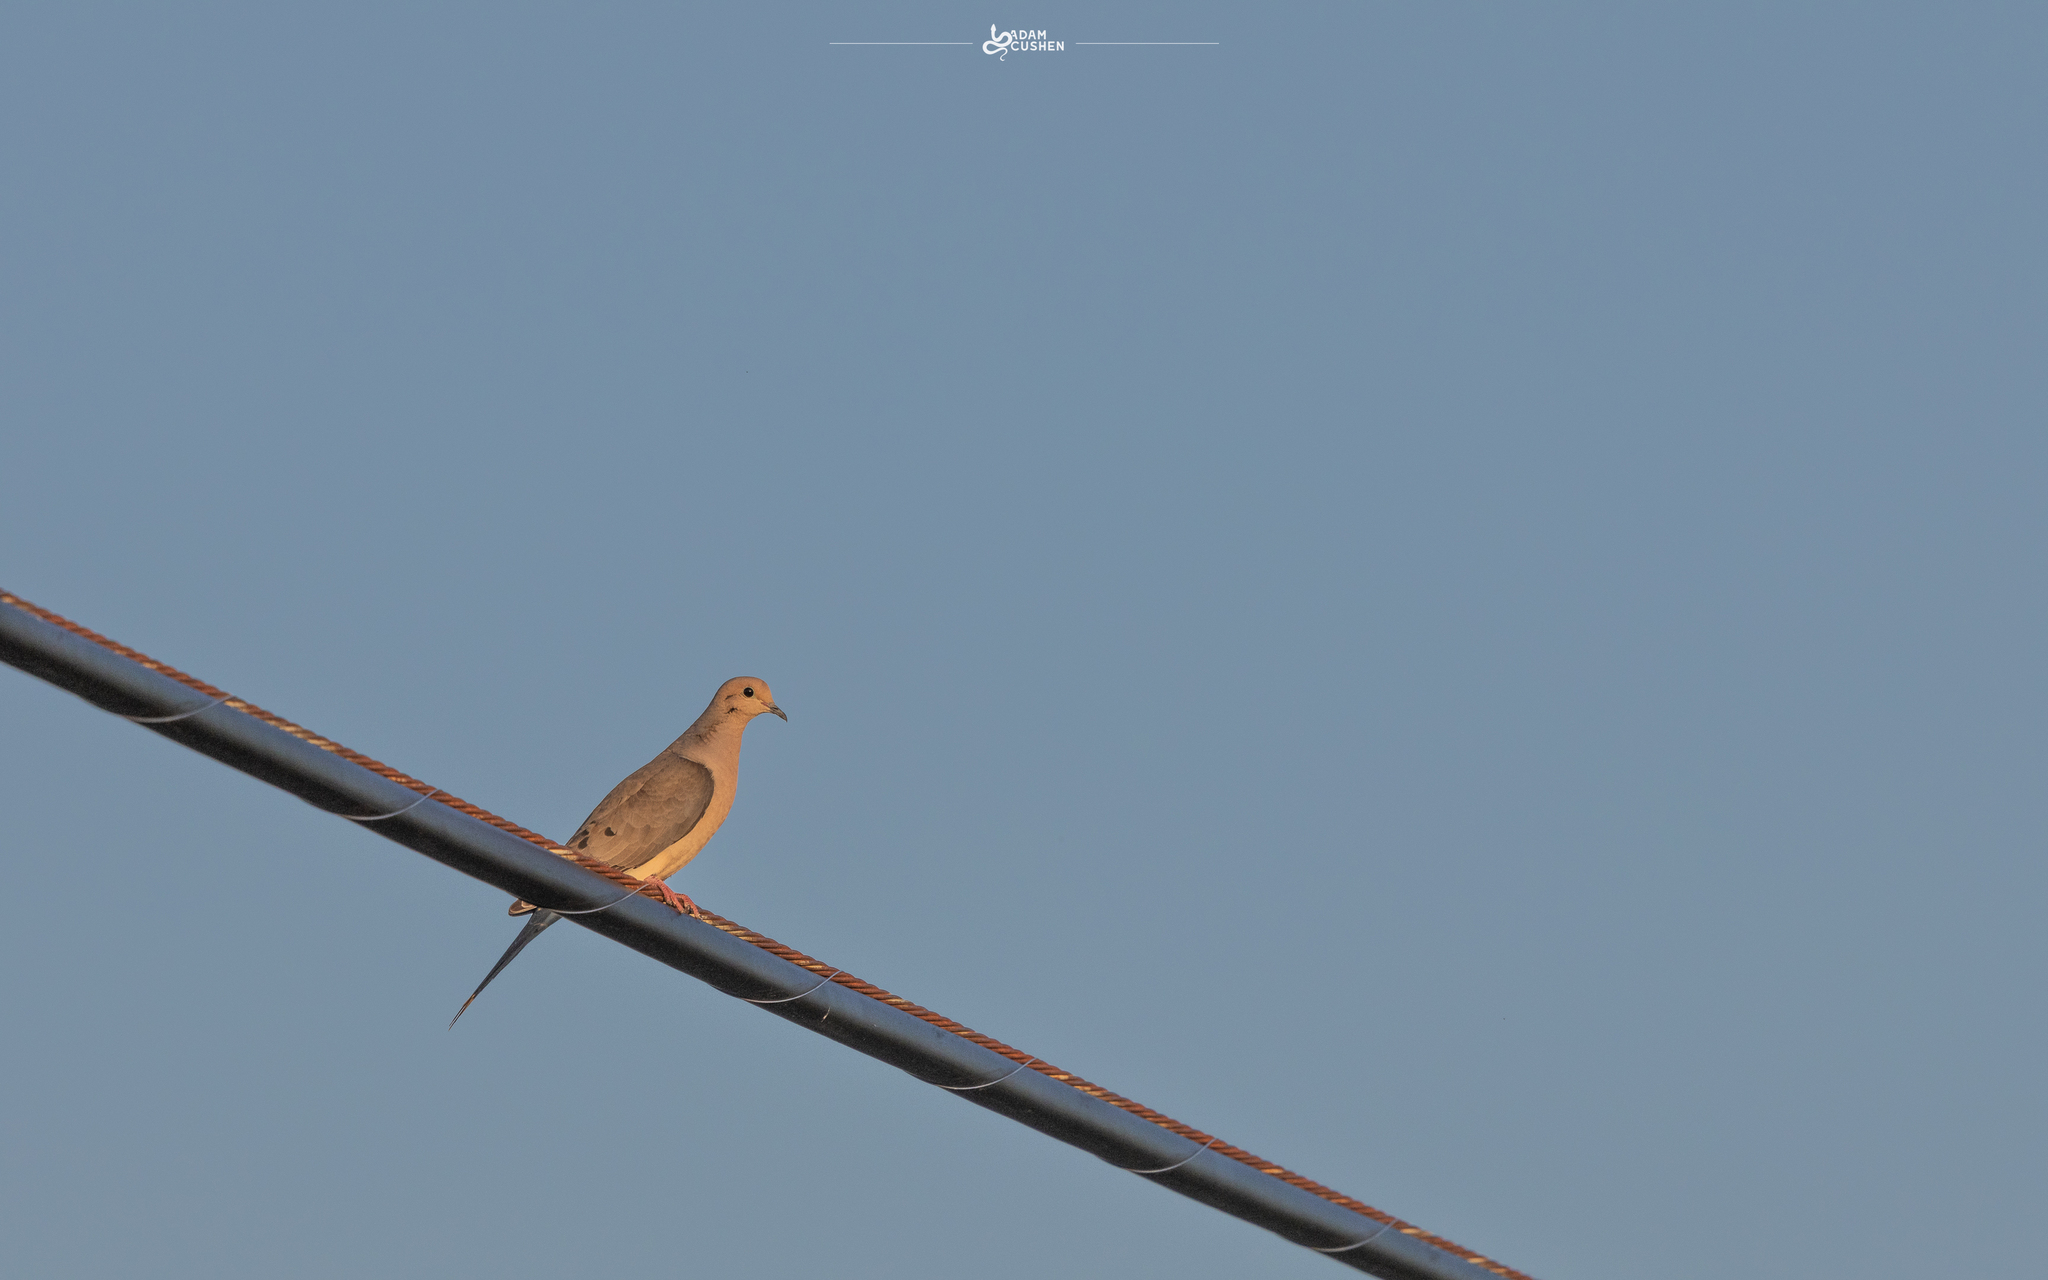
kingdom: Animalia
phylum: Chordata
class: Aves
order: Columbiformes
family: Columbidae
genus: Zenaida
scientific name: Zenaida macroura
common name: Mourning dove
